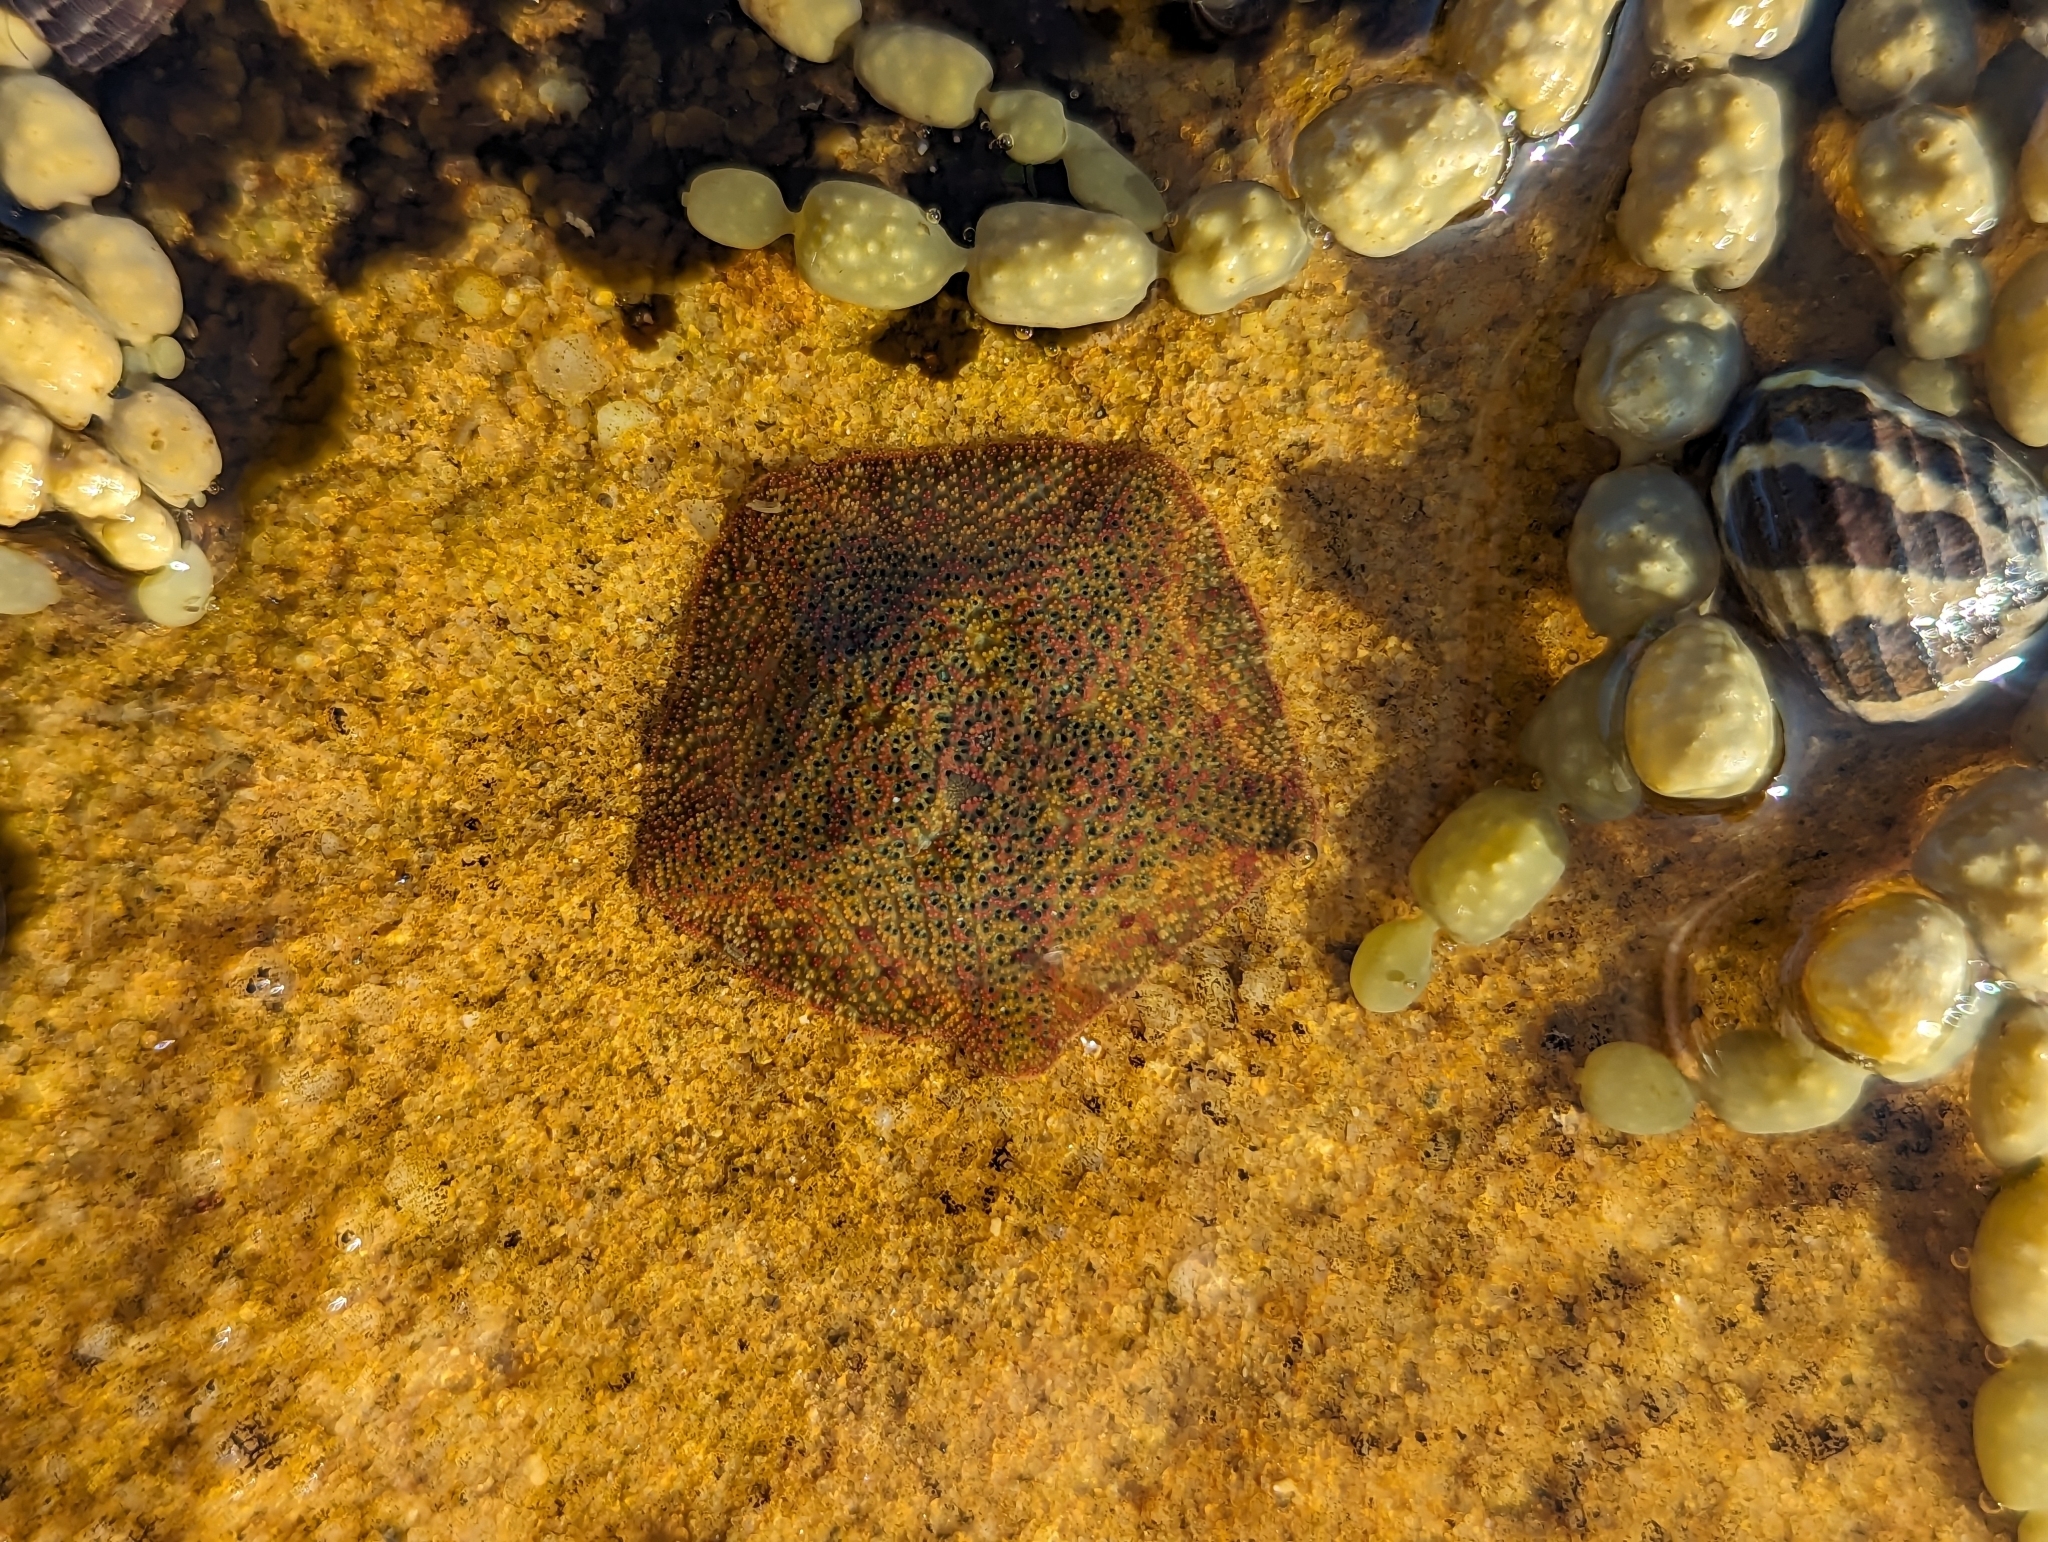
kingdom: Animalia
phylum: Echinodermata
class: Asteroidea
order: Valvatida
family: Asterinidae
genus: Parvulastra
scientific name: Parvulastra exigua
